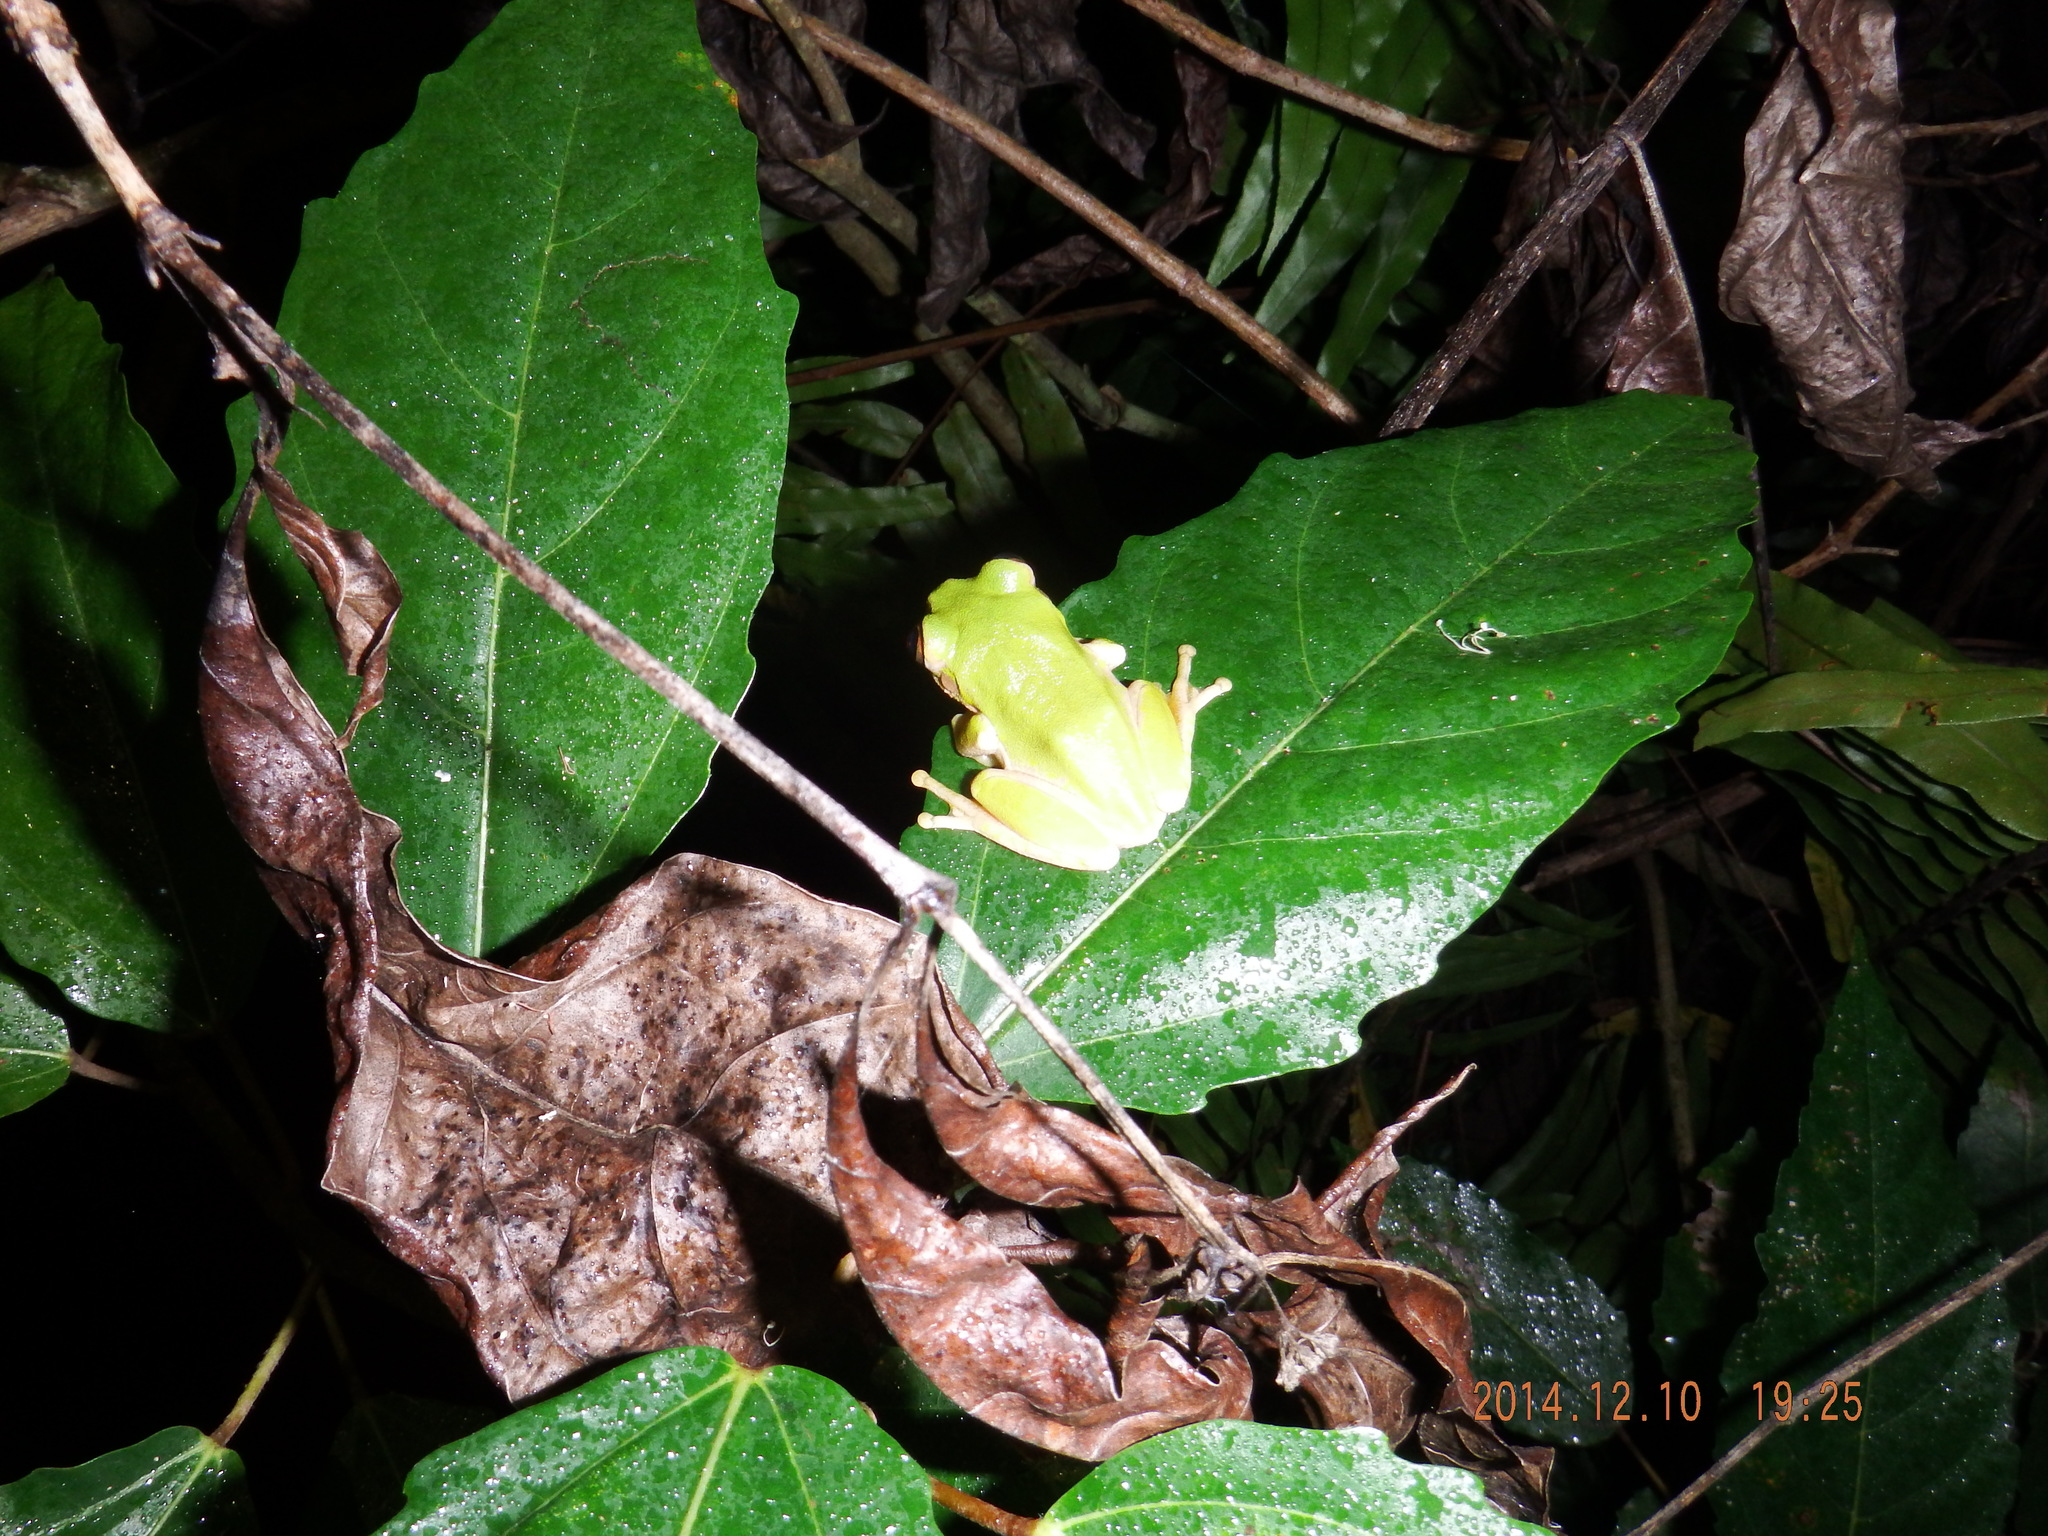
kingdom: Animalia
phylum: Chordata
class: Amphibia
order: Anura
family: Arthroleptidae
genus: Leptopelis
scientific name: Leptopelis natalensis
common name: Natal tree frog
